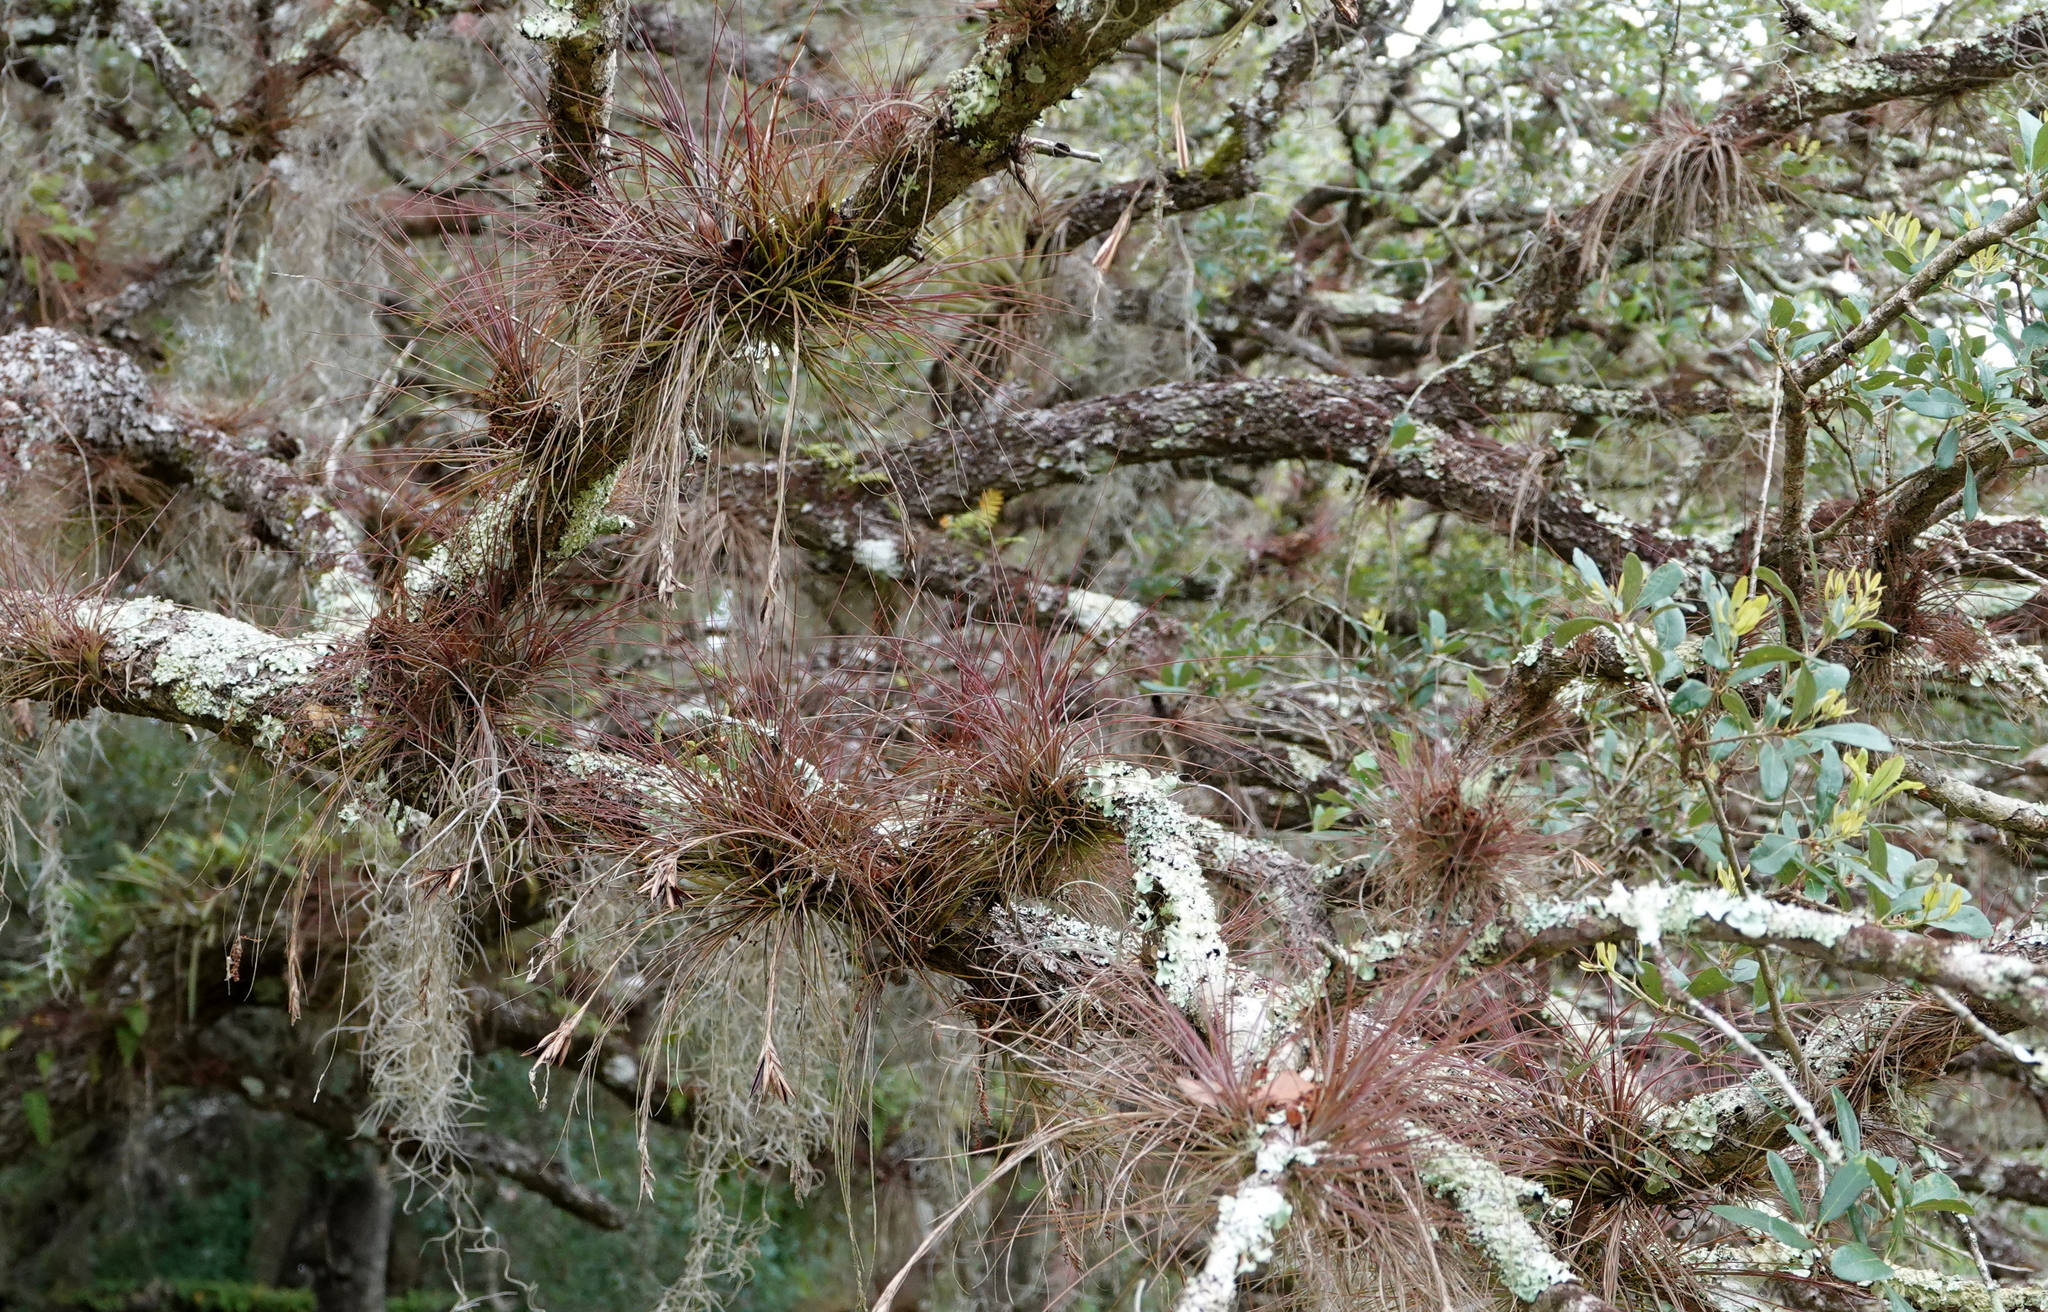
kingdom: Plantae
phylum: Tracheophyta
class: Liliopsida
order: Poales
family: Bromeliaceae
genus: Tillandsia
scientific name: Tillandsia setacea
